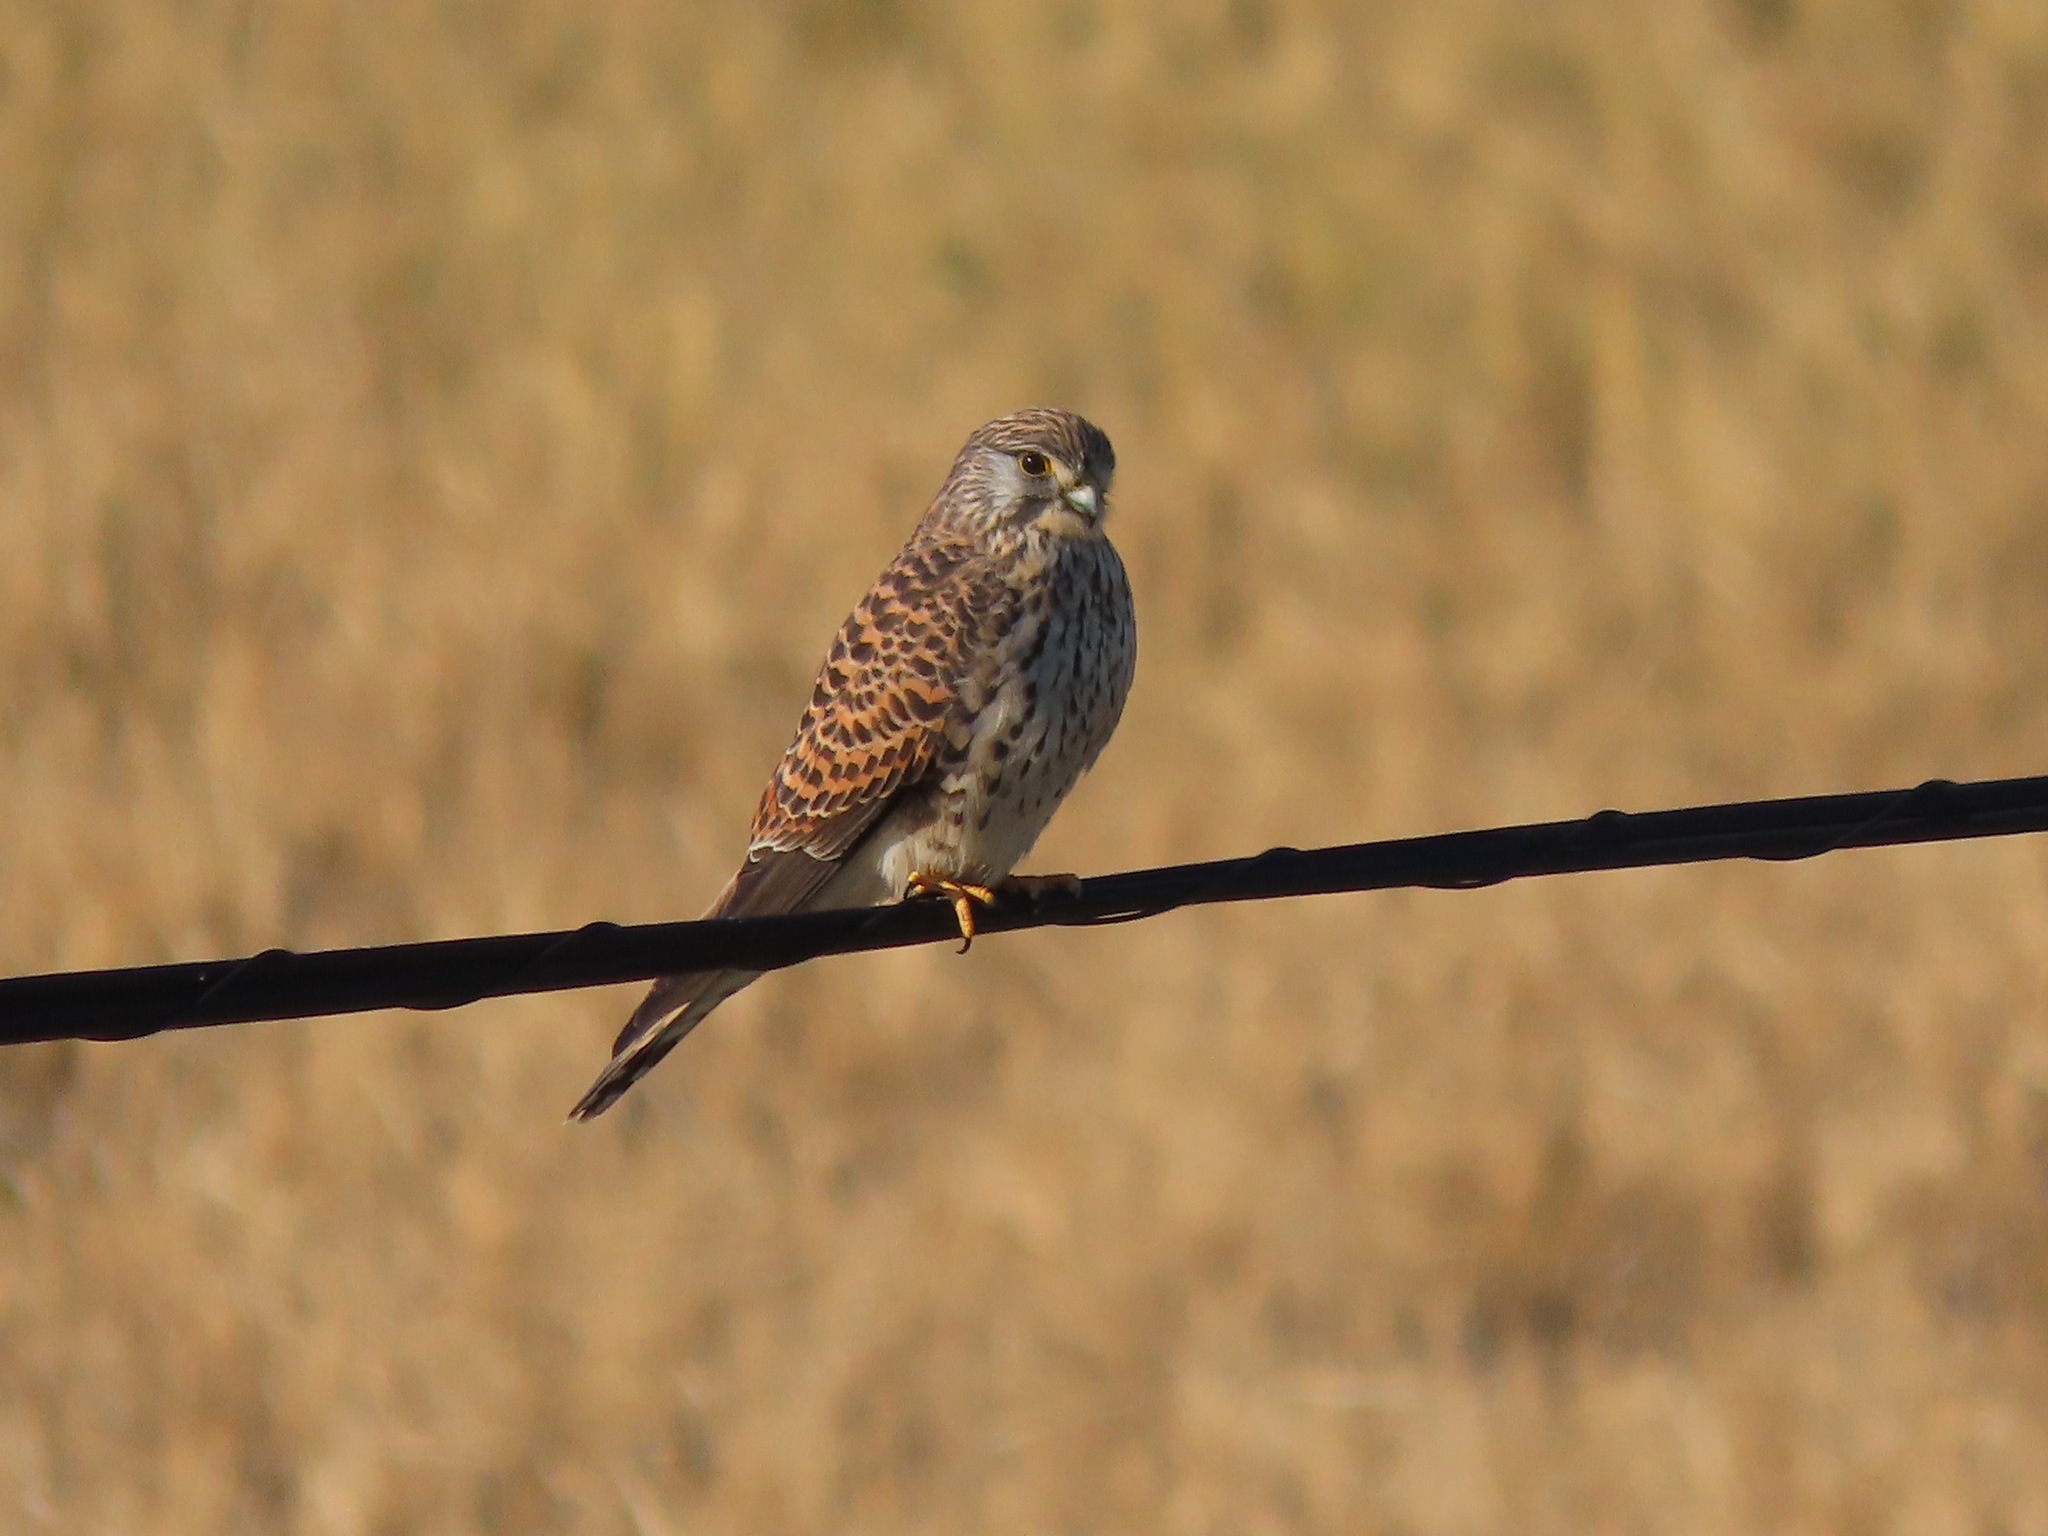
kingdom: Animalia
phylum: Chordata
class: Aves
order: Falconiformes
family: Falconidae
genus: Falco
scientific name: Falco tinnunculus
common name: Common kestrel
